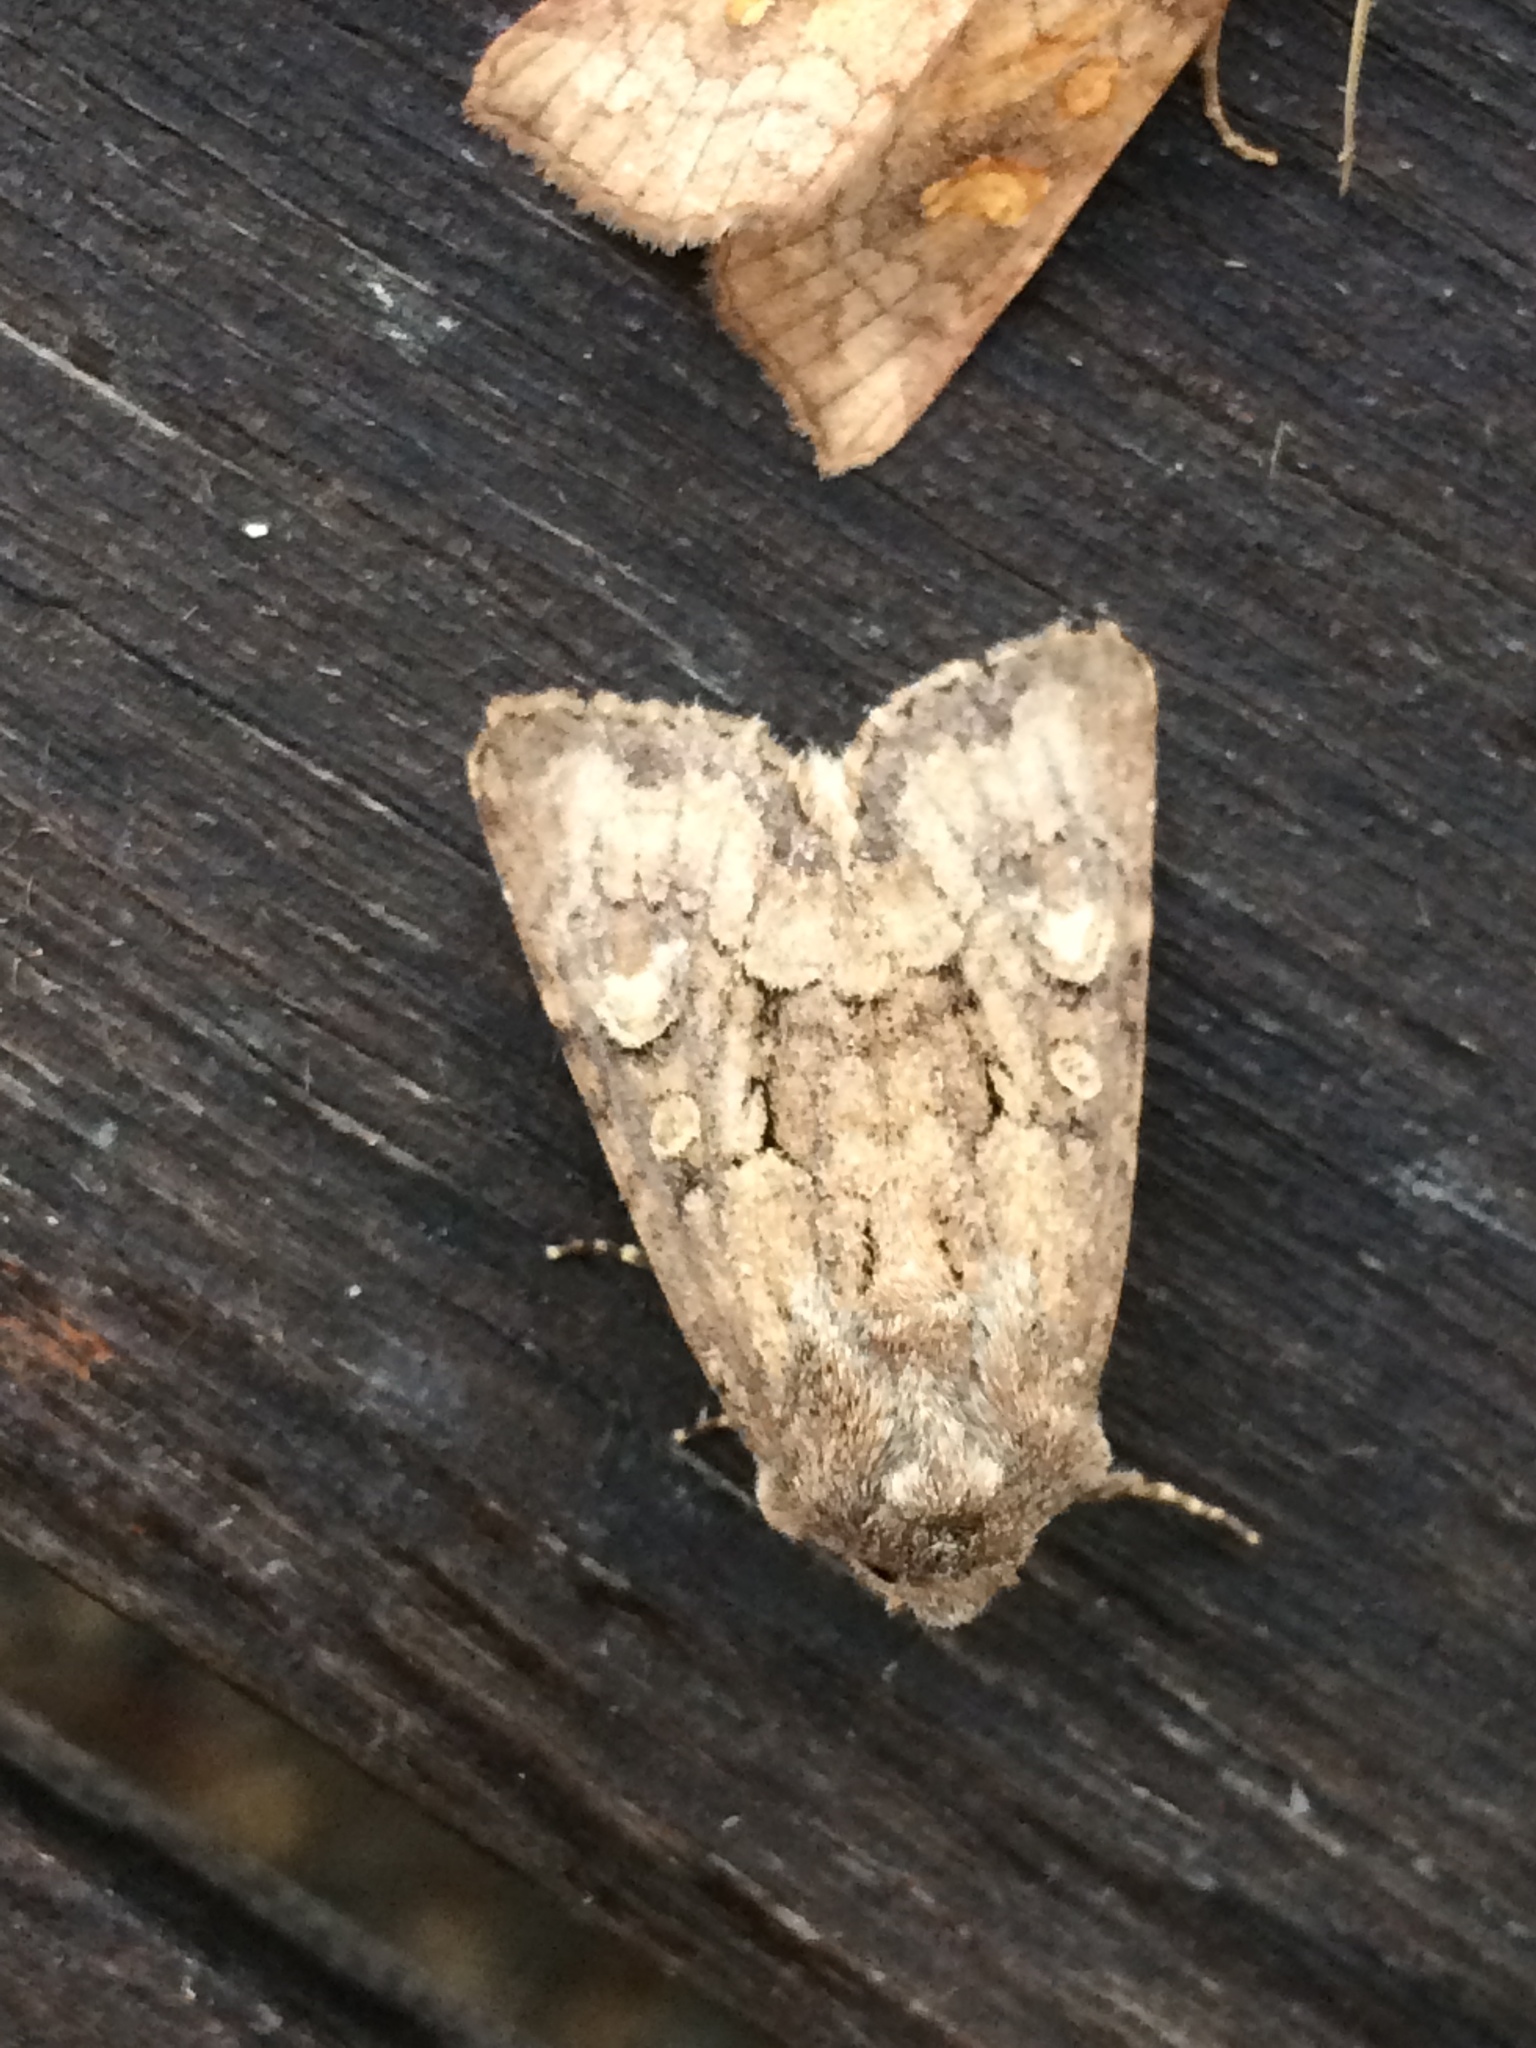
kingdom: Animalia
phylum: Arthropoda
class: Insecta
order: Lepidoptera
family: Noctuidae
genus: Luperina
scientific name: Luperina testacea
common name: Flounced rustic
